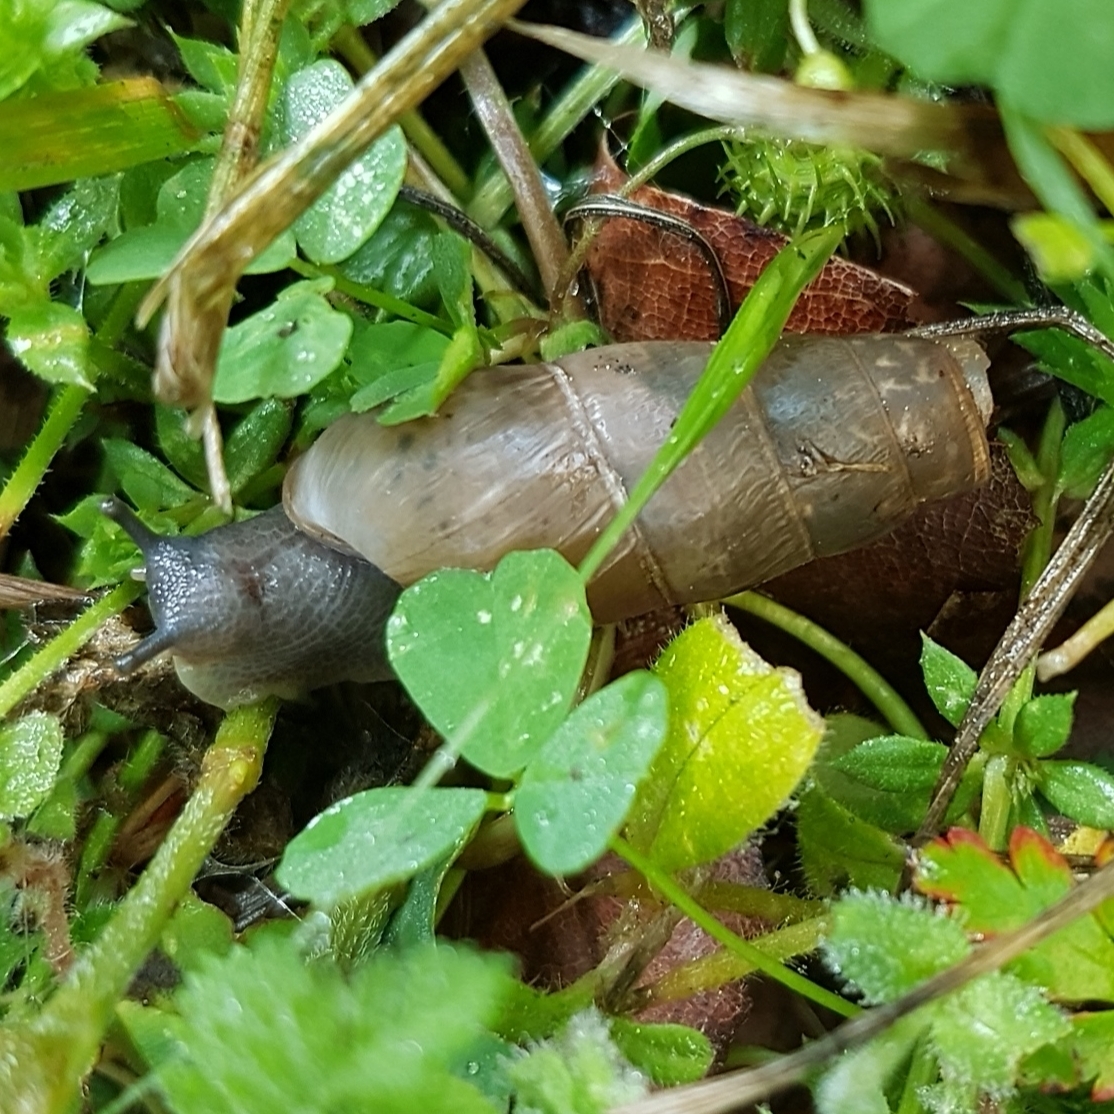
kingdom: Animalia
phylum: Mollusca
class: Gastropoda
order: Stylommatophora
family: Achatinidae
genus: Rumina
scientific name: Rumina decollata
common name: Decollate snail
